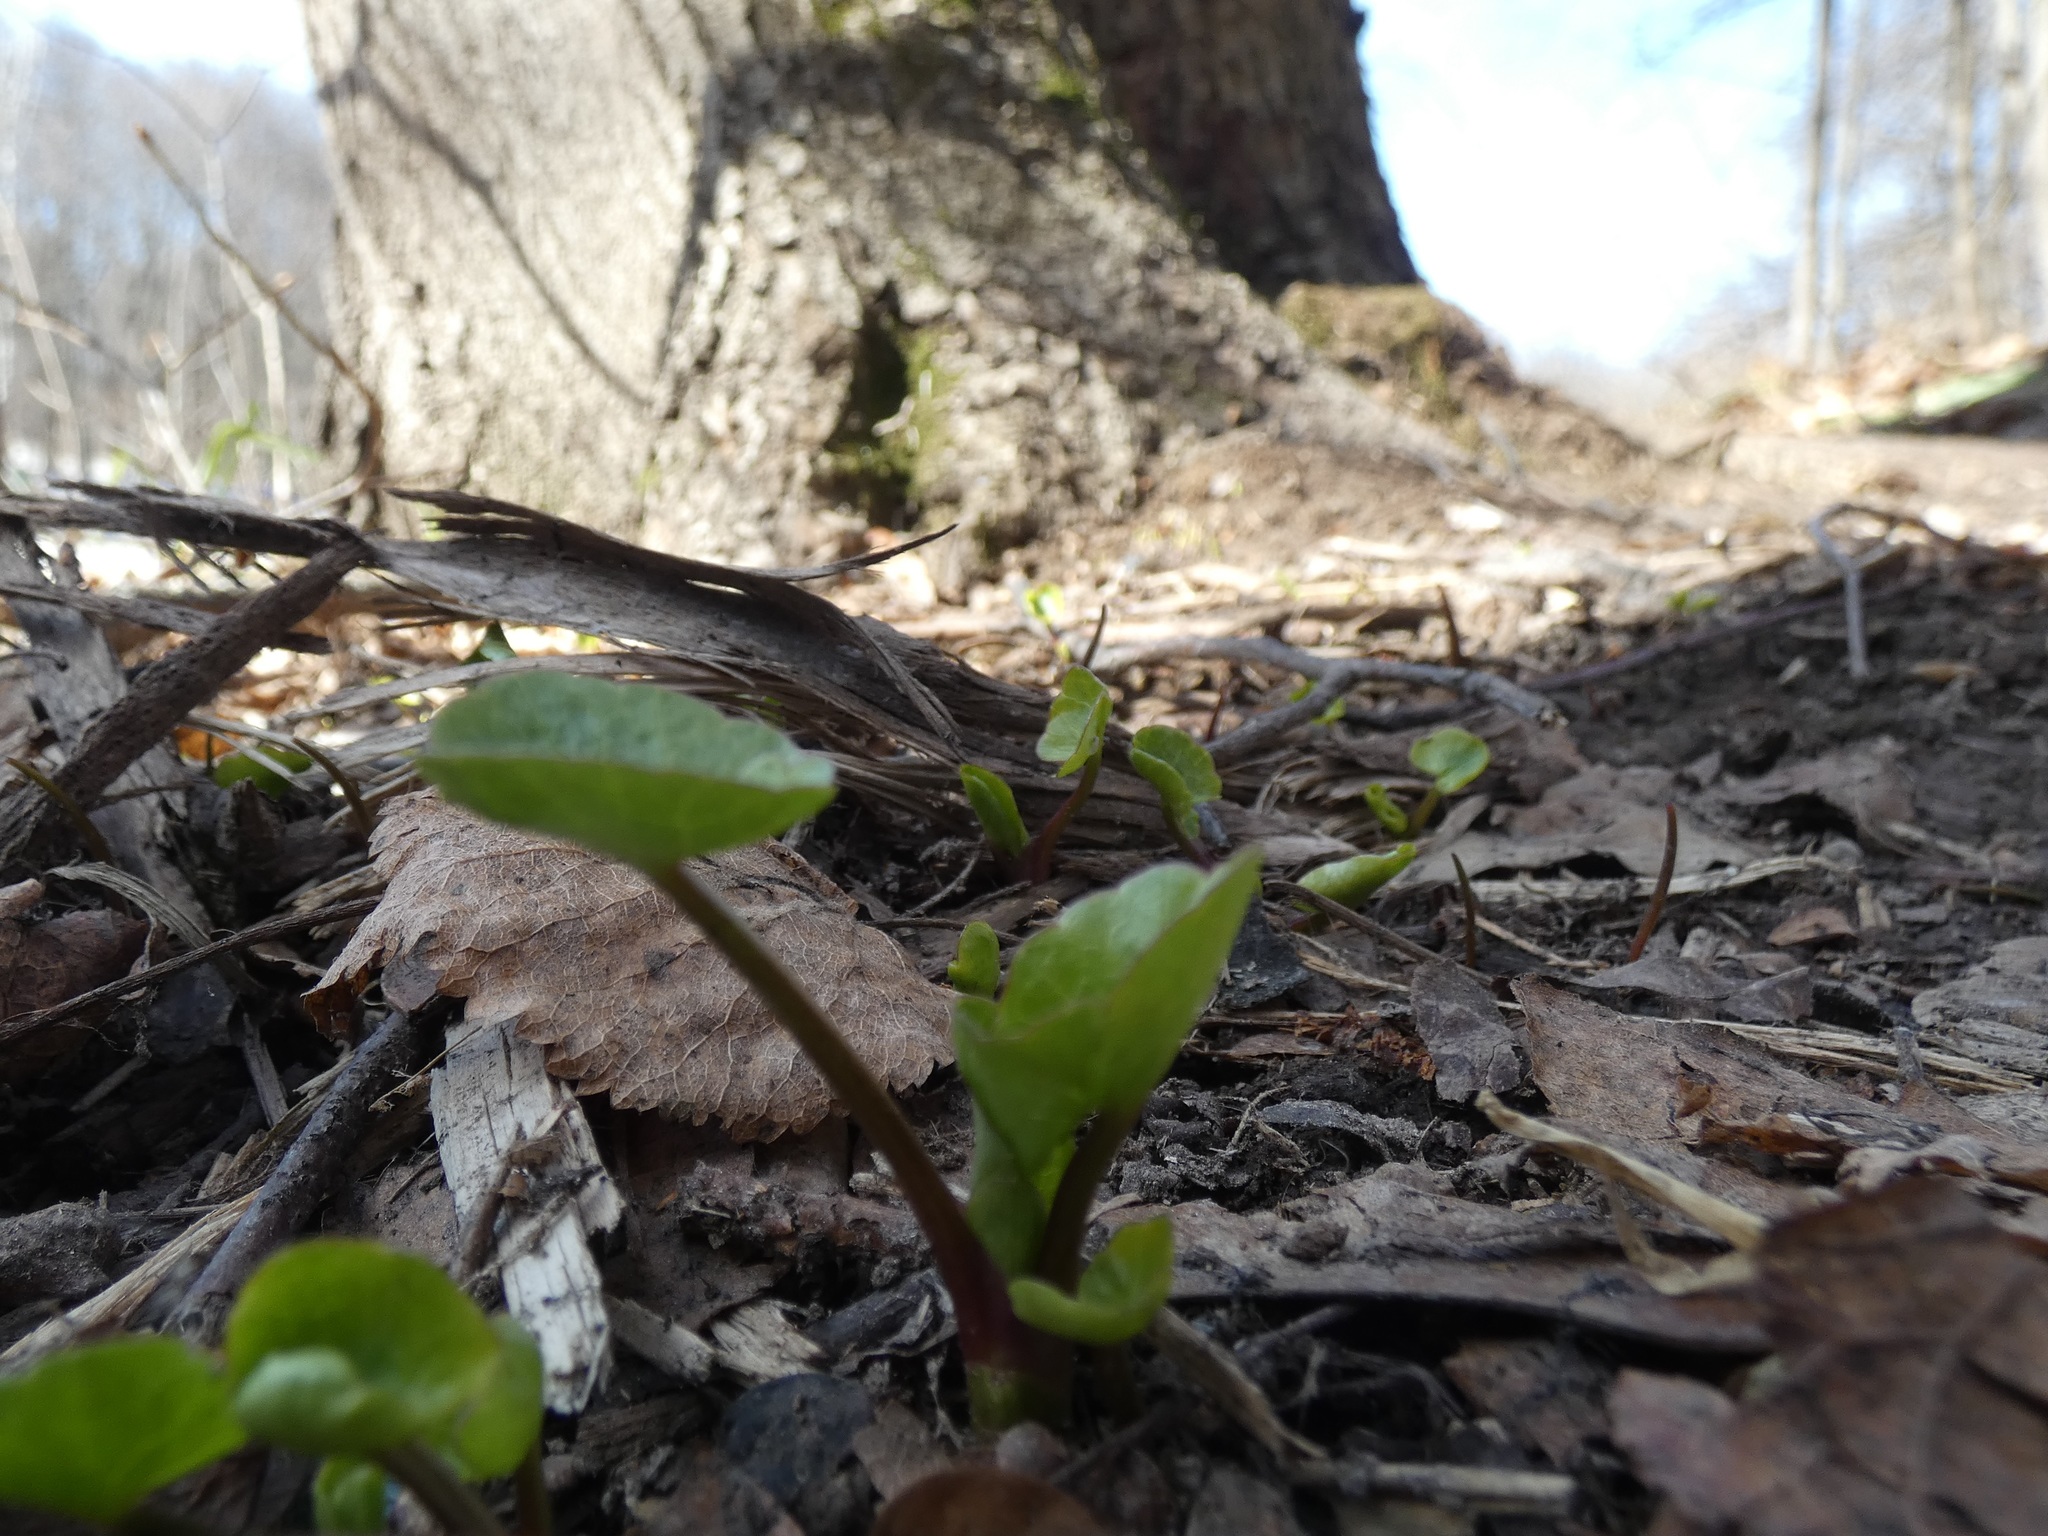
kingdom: Plantae
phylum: Tracheophyta
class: Magnoliopsida
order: Ranunculales
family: Ranunculaceae
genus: Ficaria
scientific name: Ficaria verna
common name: Lesser celandine
